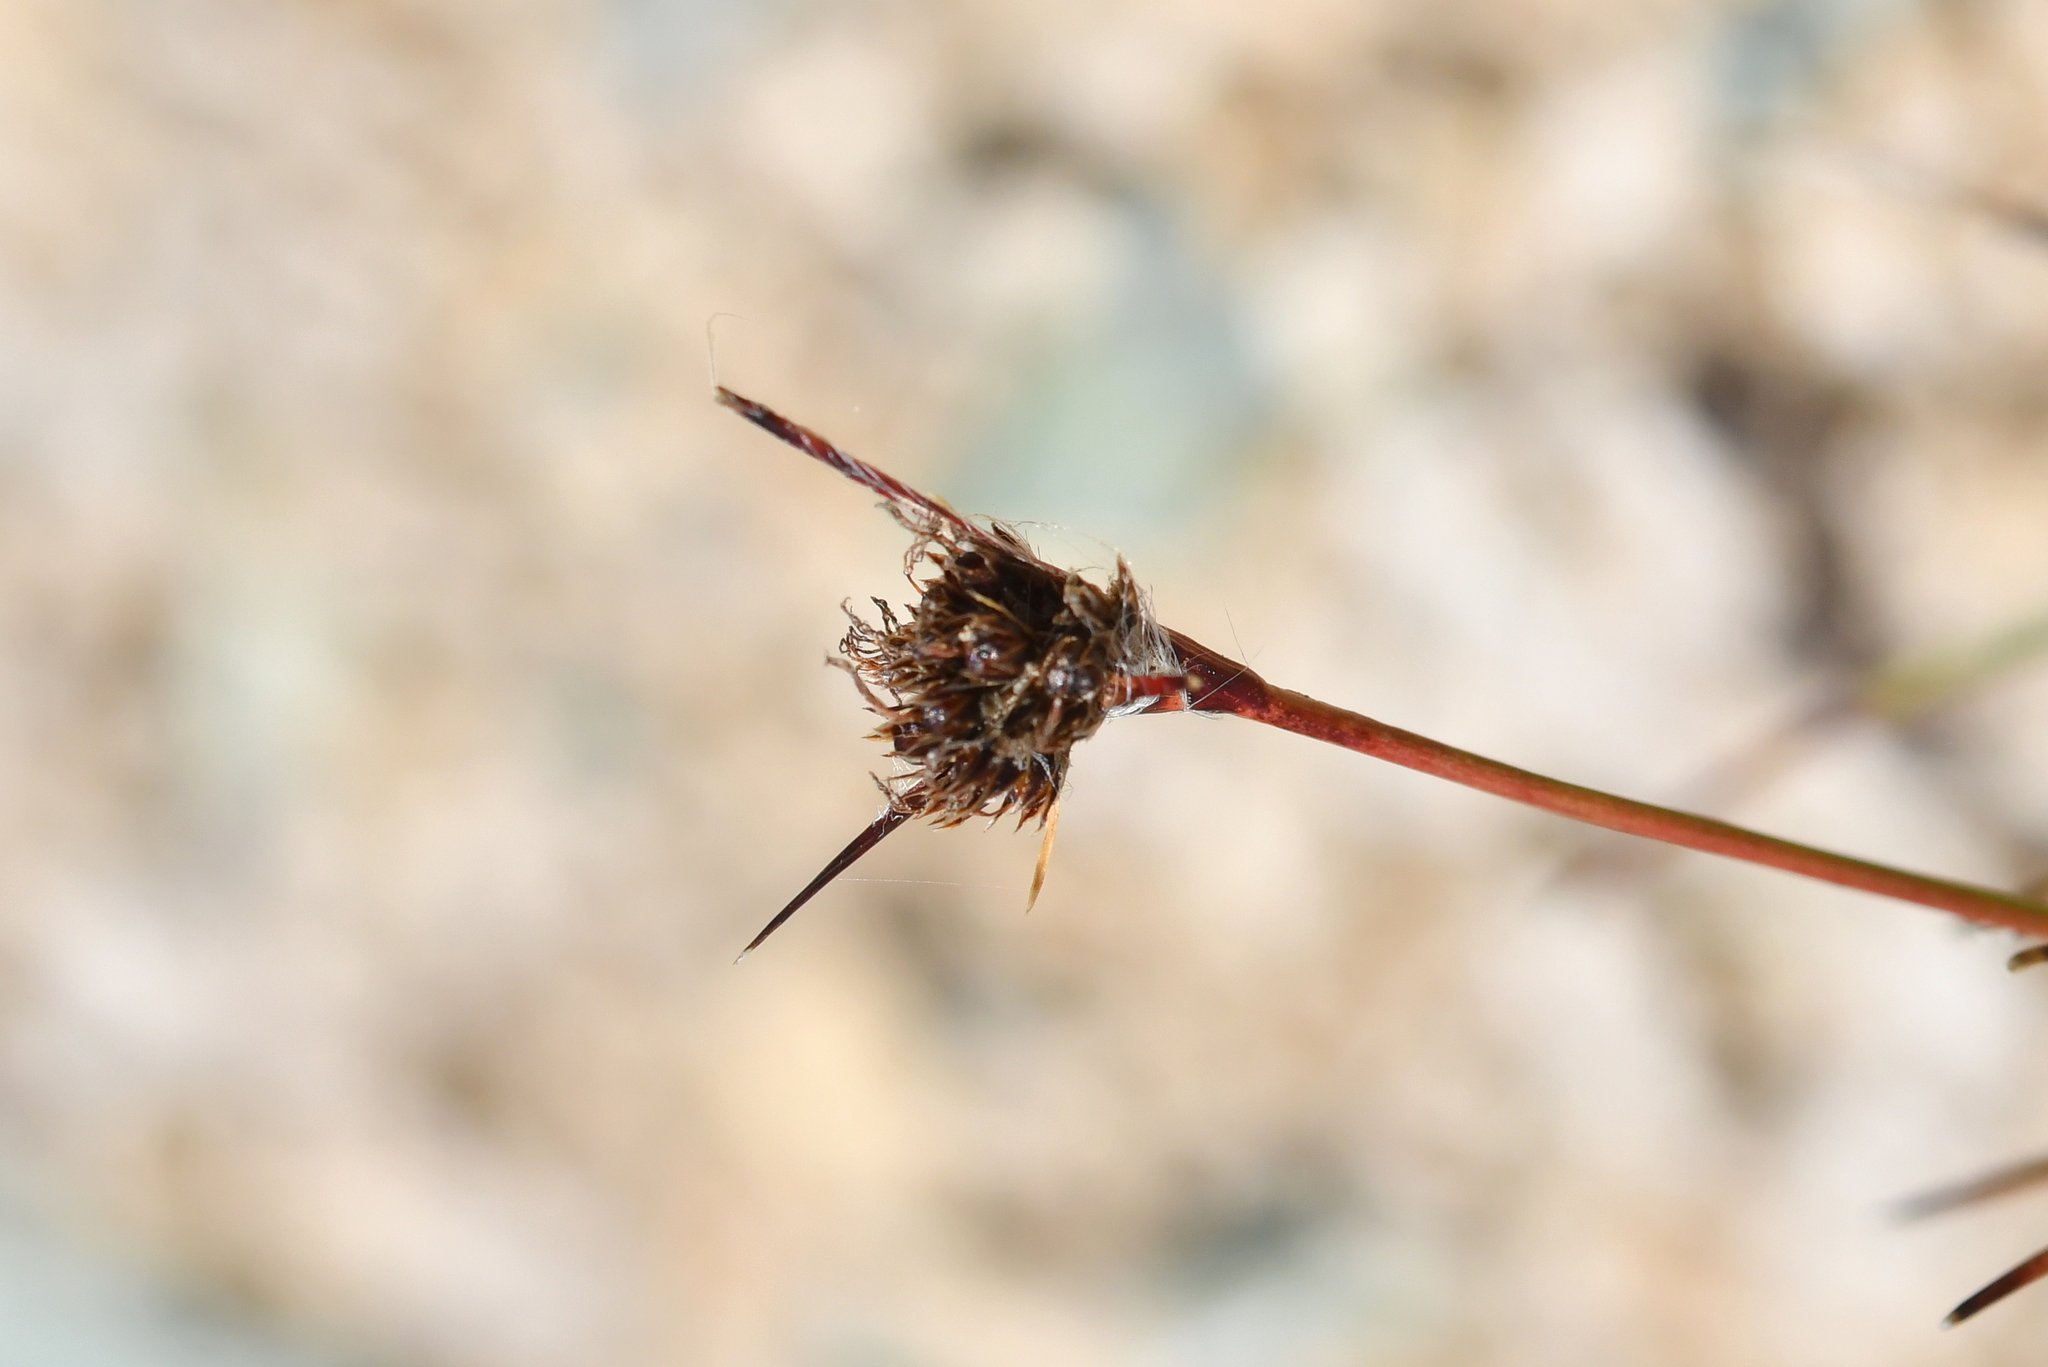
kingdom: Plantae
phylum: Tracheophyta
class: Liliopsida
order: Poales
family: Juncaceae
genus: Luzula
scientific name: Luzula rufa
